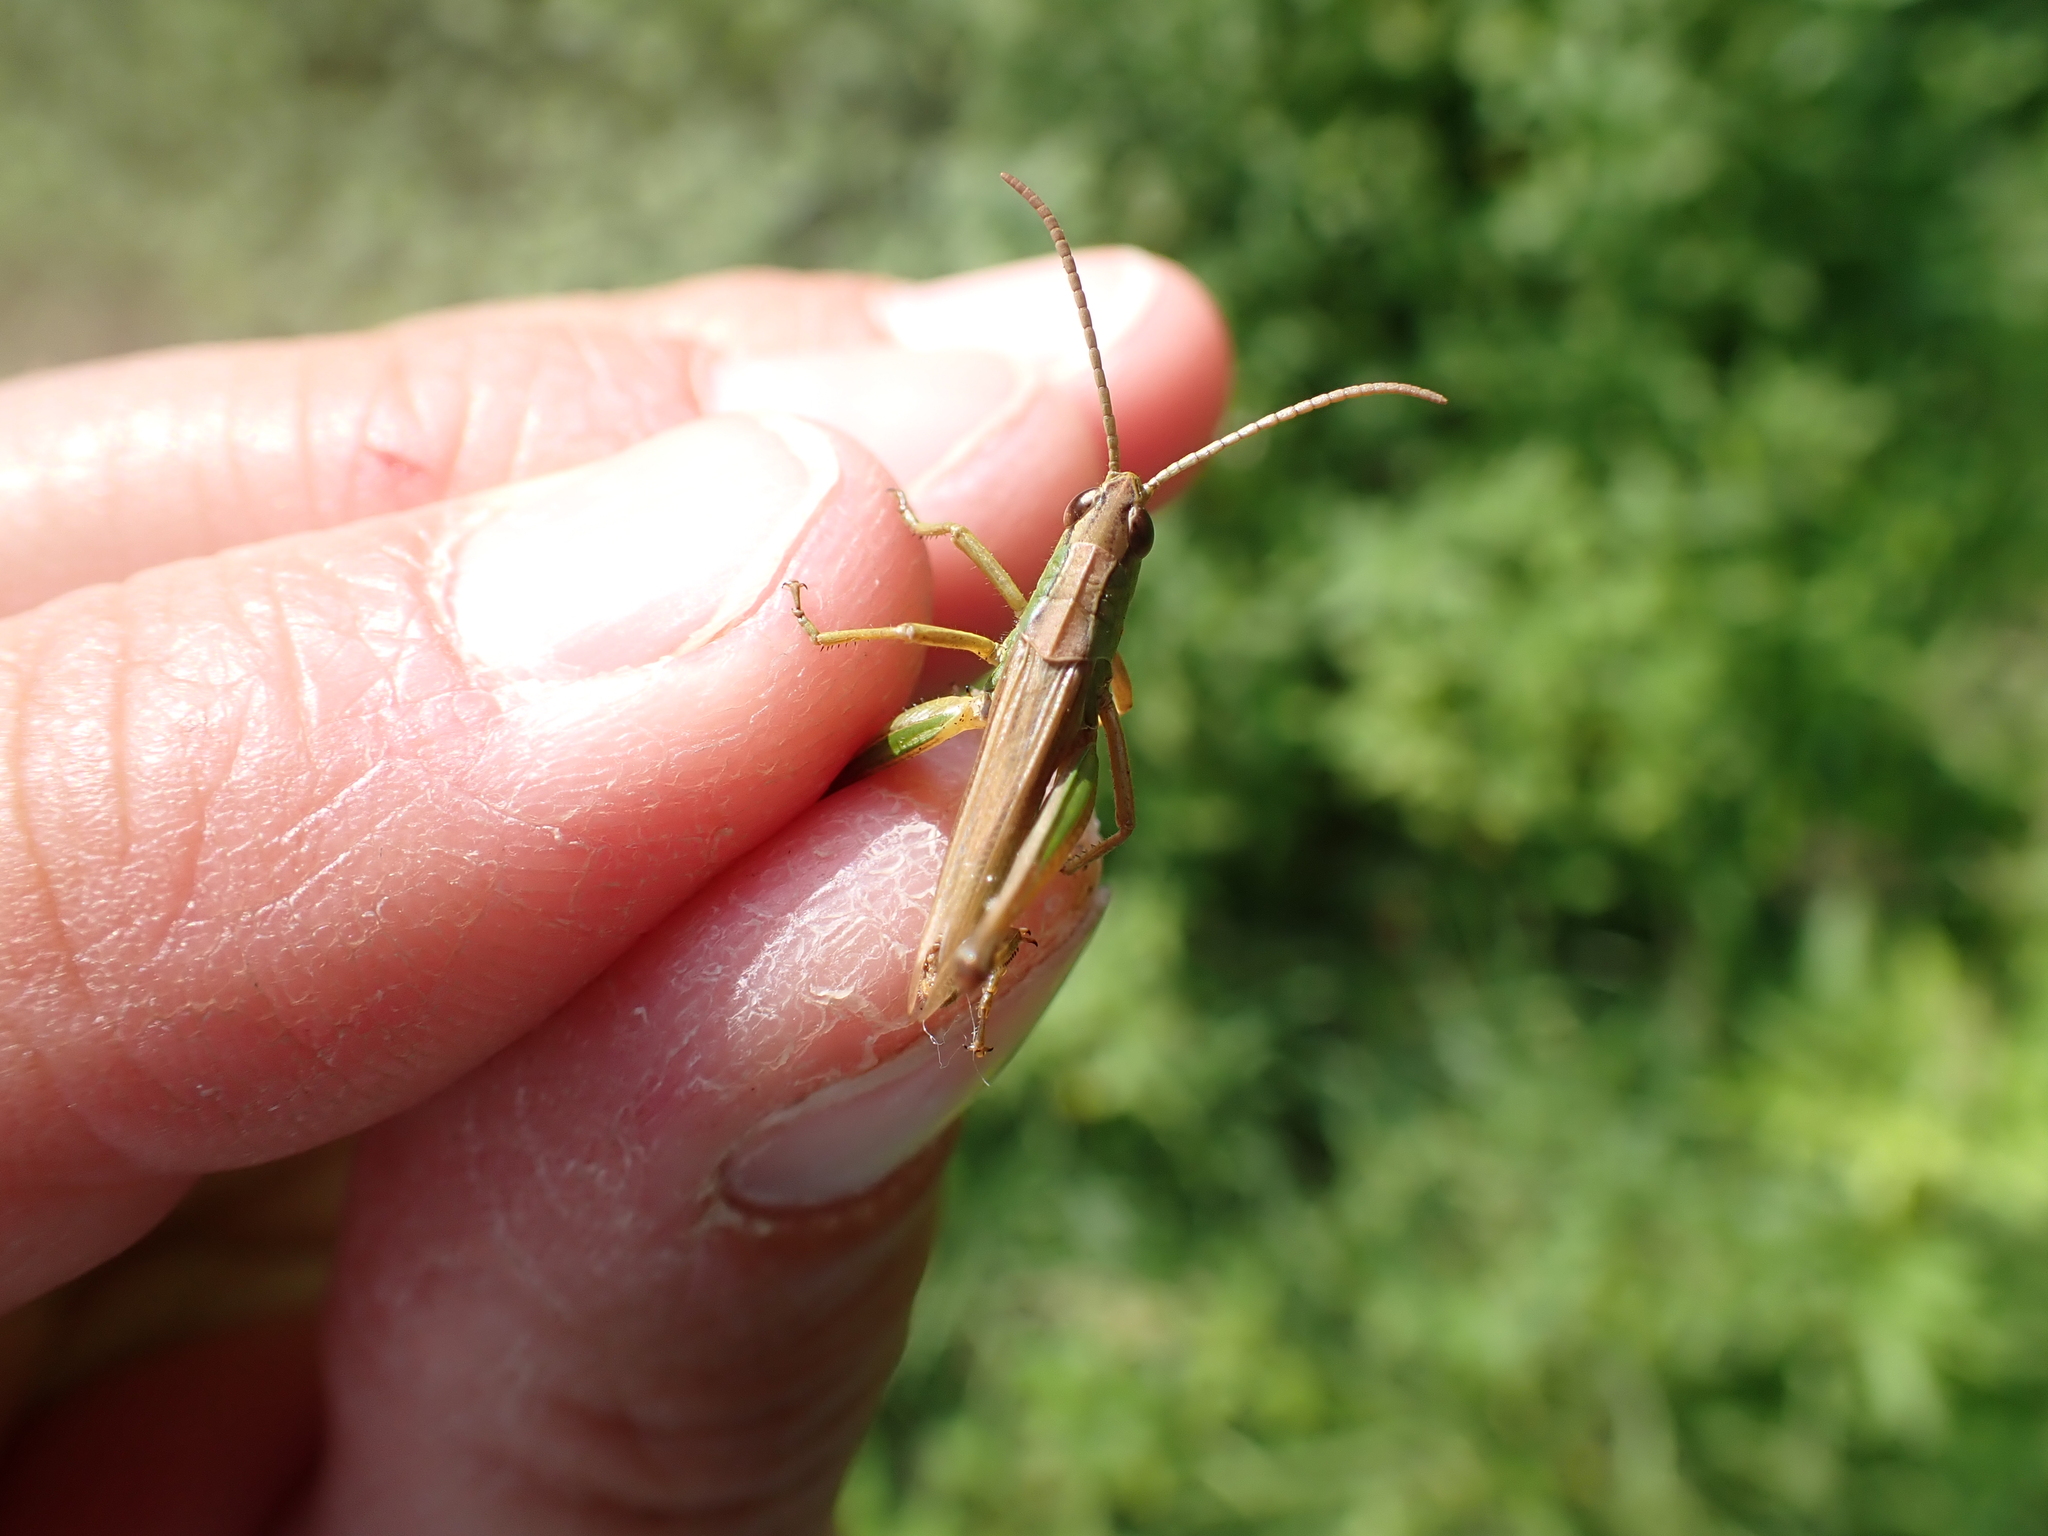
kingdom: Animalia
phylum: Arthropoda
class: Insecta
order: Orthoptera
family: Acrididae
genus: Pseudochorthippus
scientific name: Pseudochorthippus parallelus
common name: Meadow grasshopper
